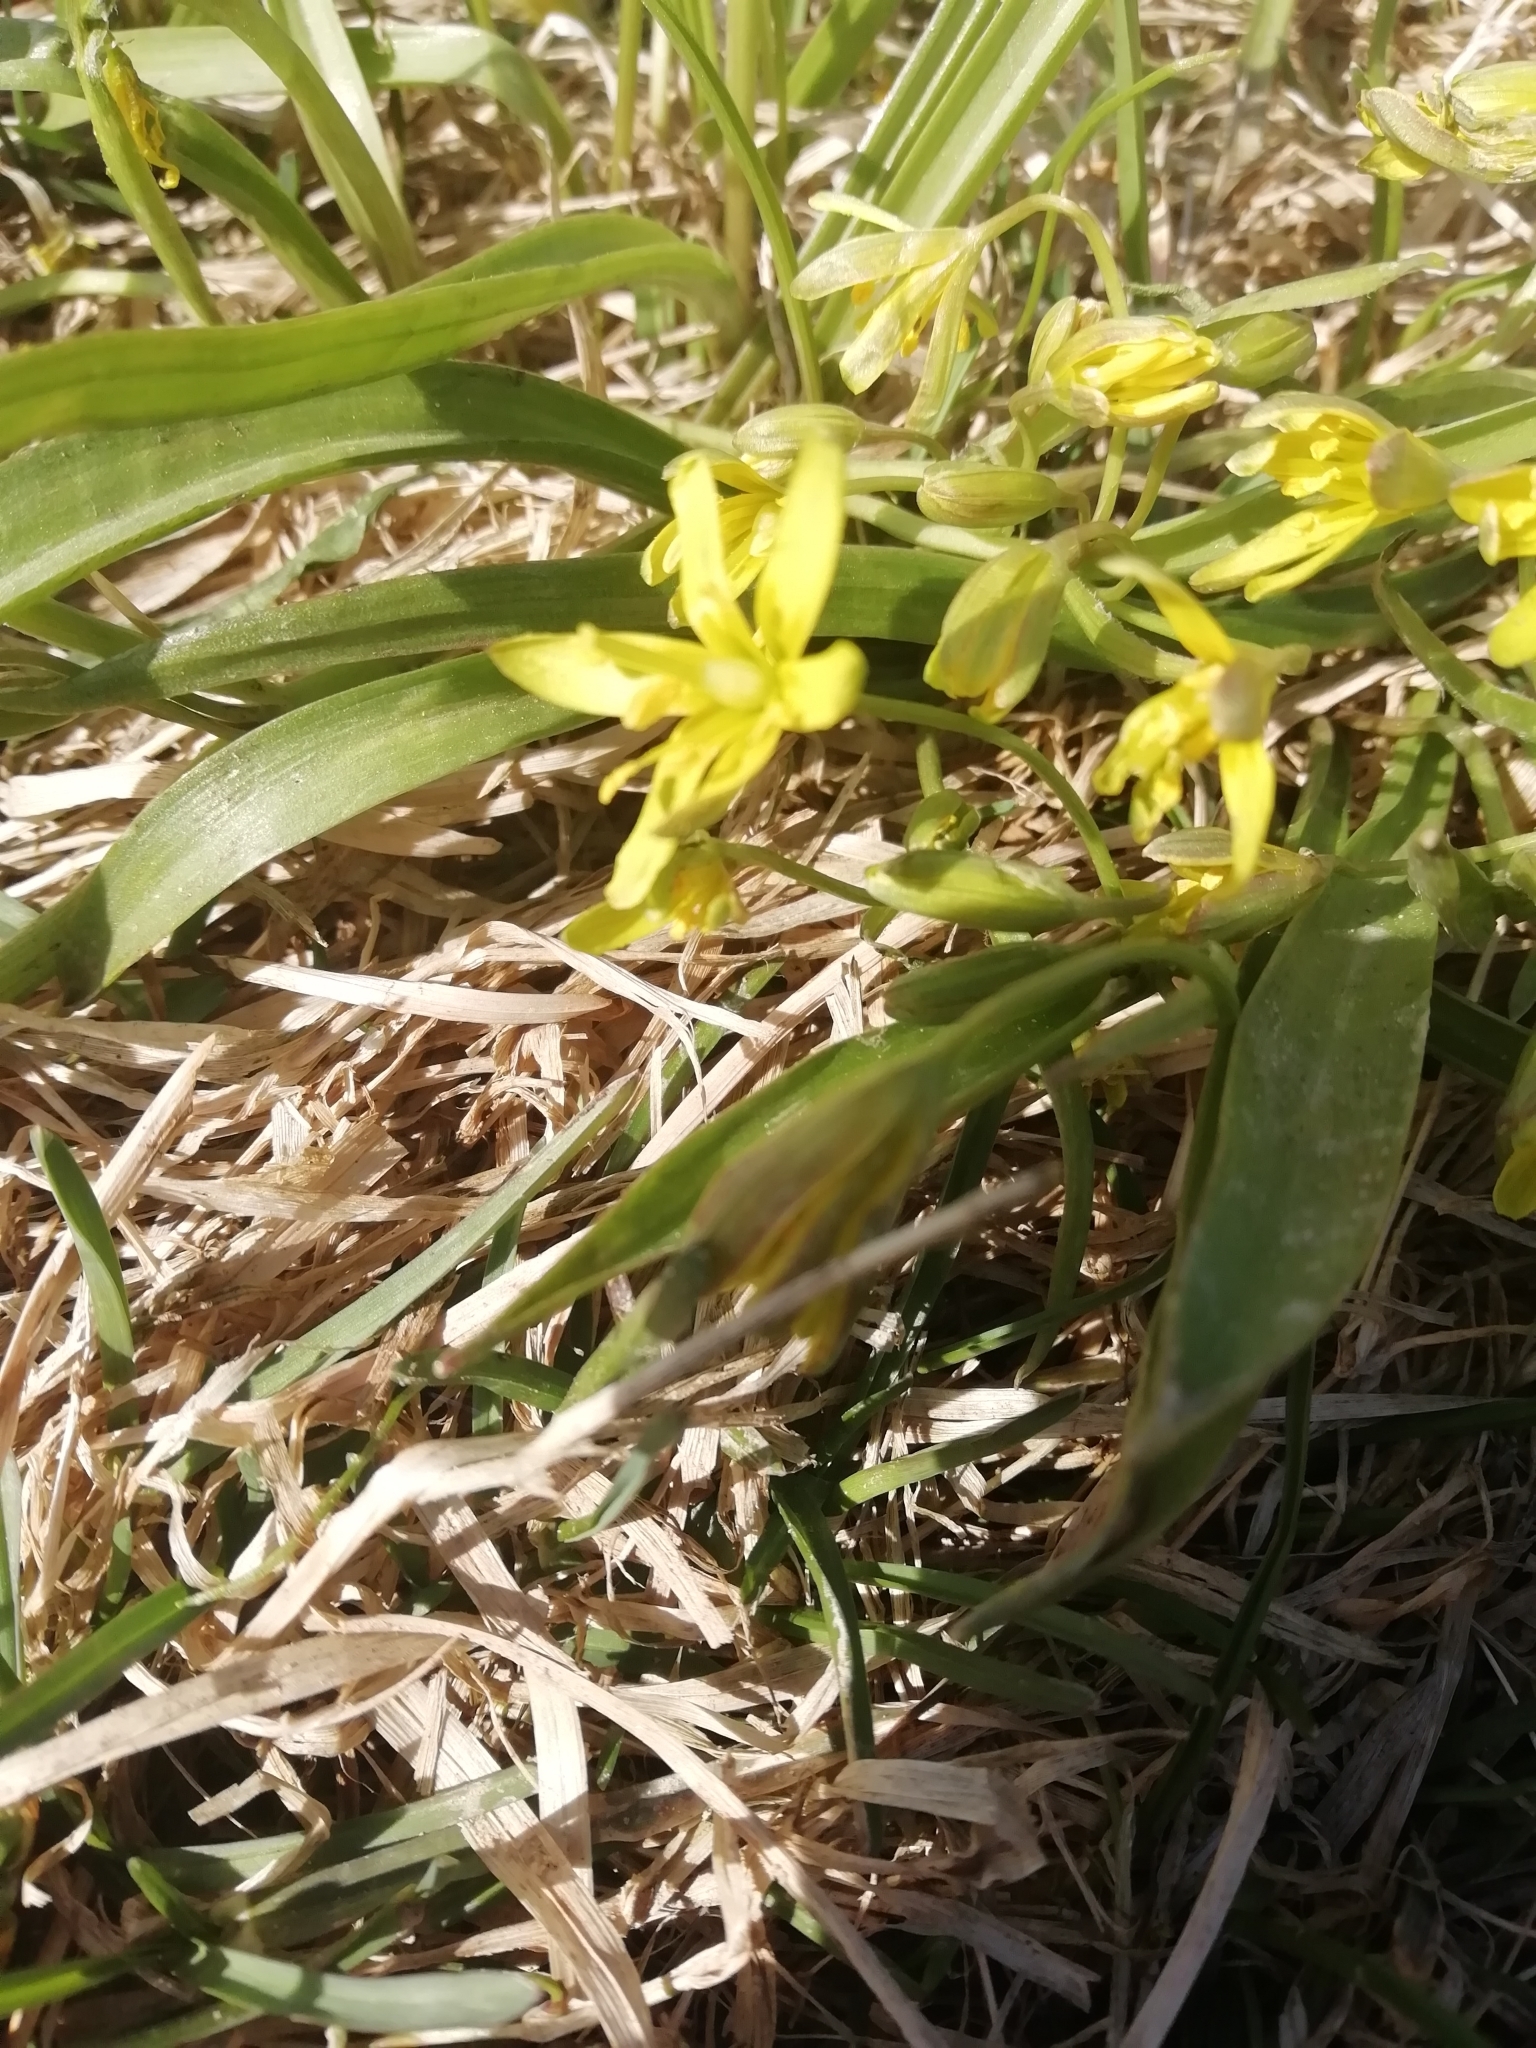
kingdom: Plantae
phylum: Tracheophyta
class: Liliopsida
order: Liliales
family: Liliaceae
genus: Gagea
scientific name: Gagea lutea
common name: Yellow star-of-bethlehem
